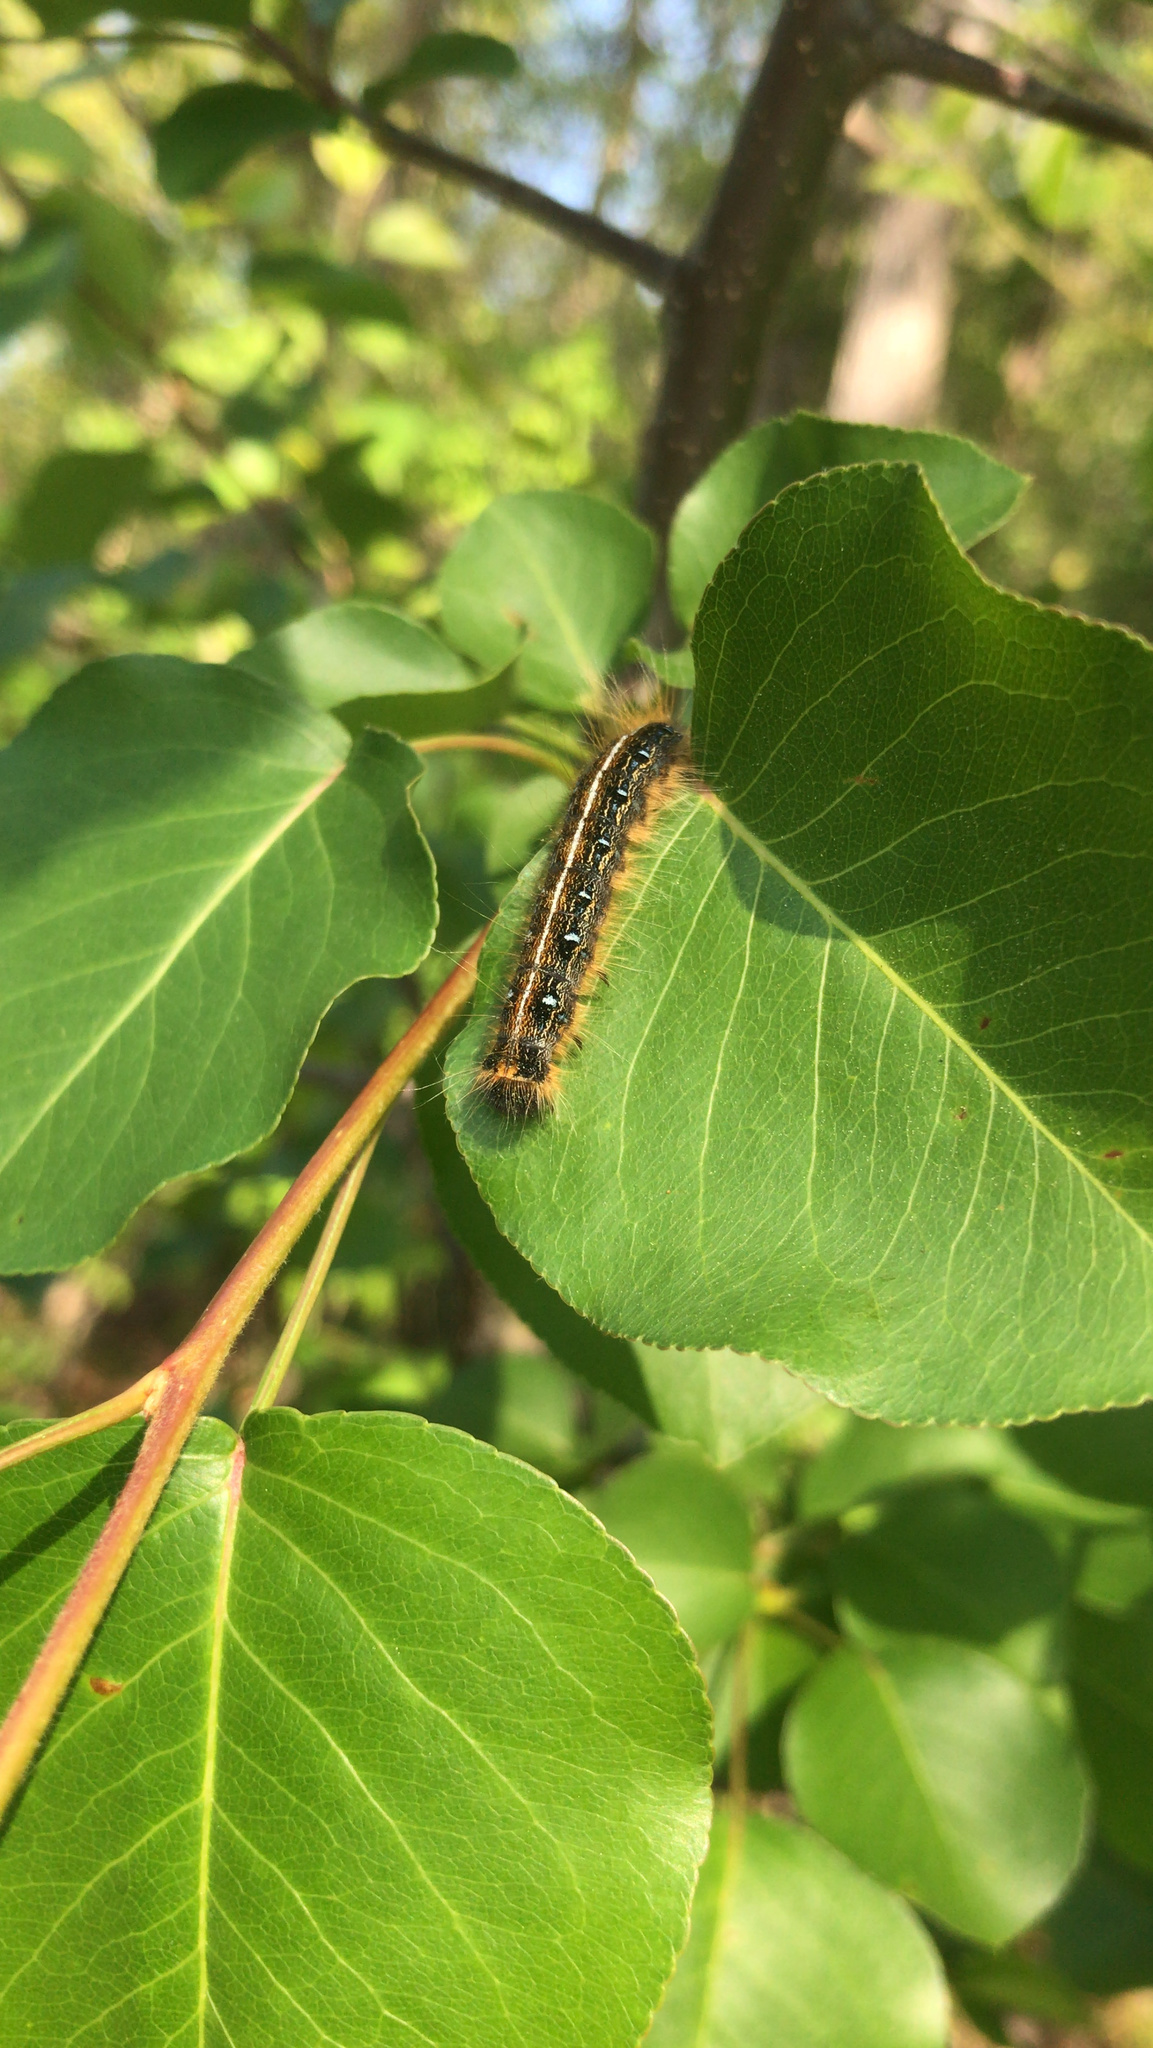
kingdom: Animalia
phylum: Arthropoda
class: Insecta
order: Lepidoptera
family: Lasiocampidae
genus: Malacosoma
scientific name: Malacosoma americana
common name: Eastern tent caterpillar moth
